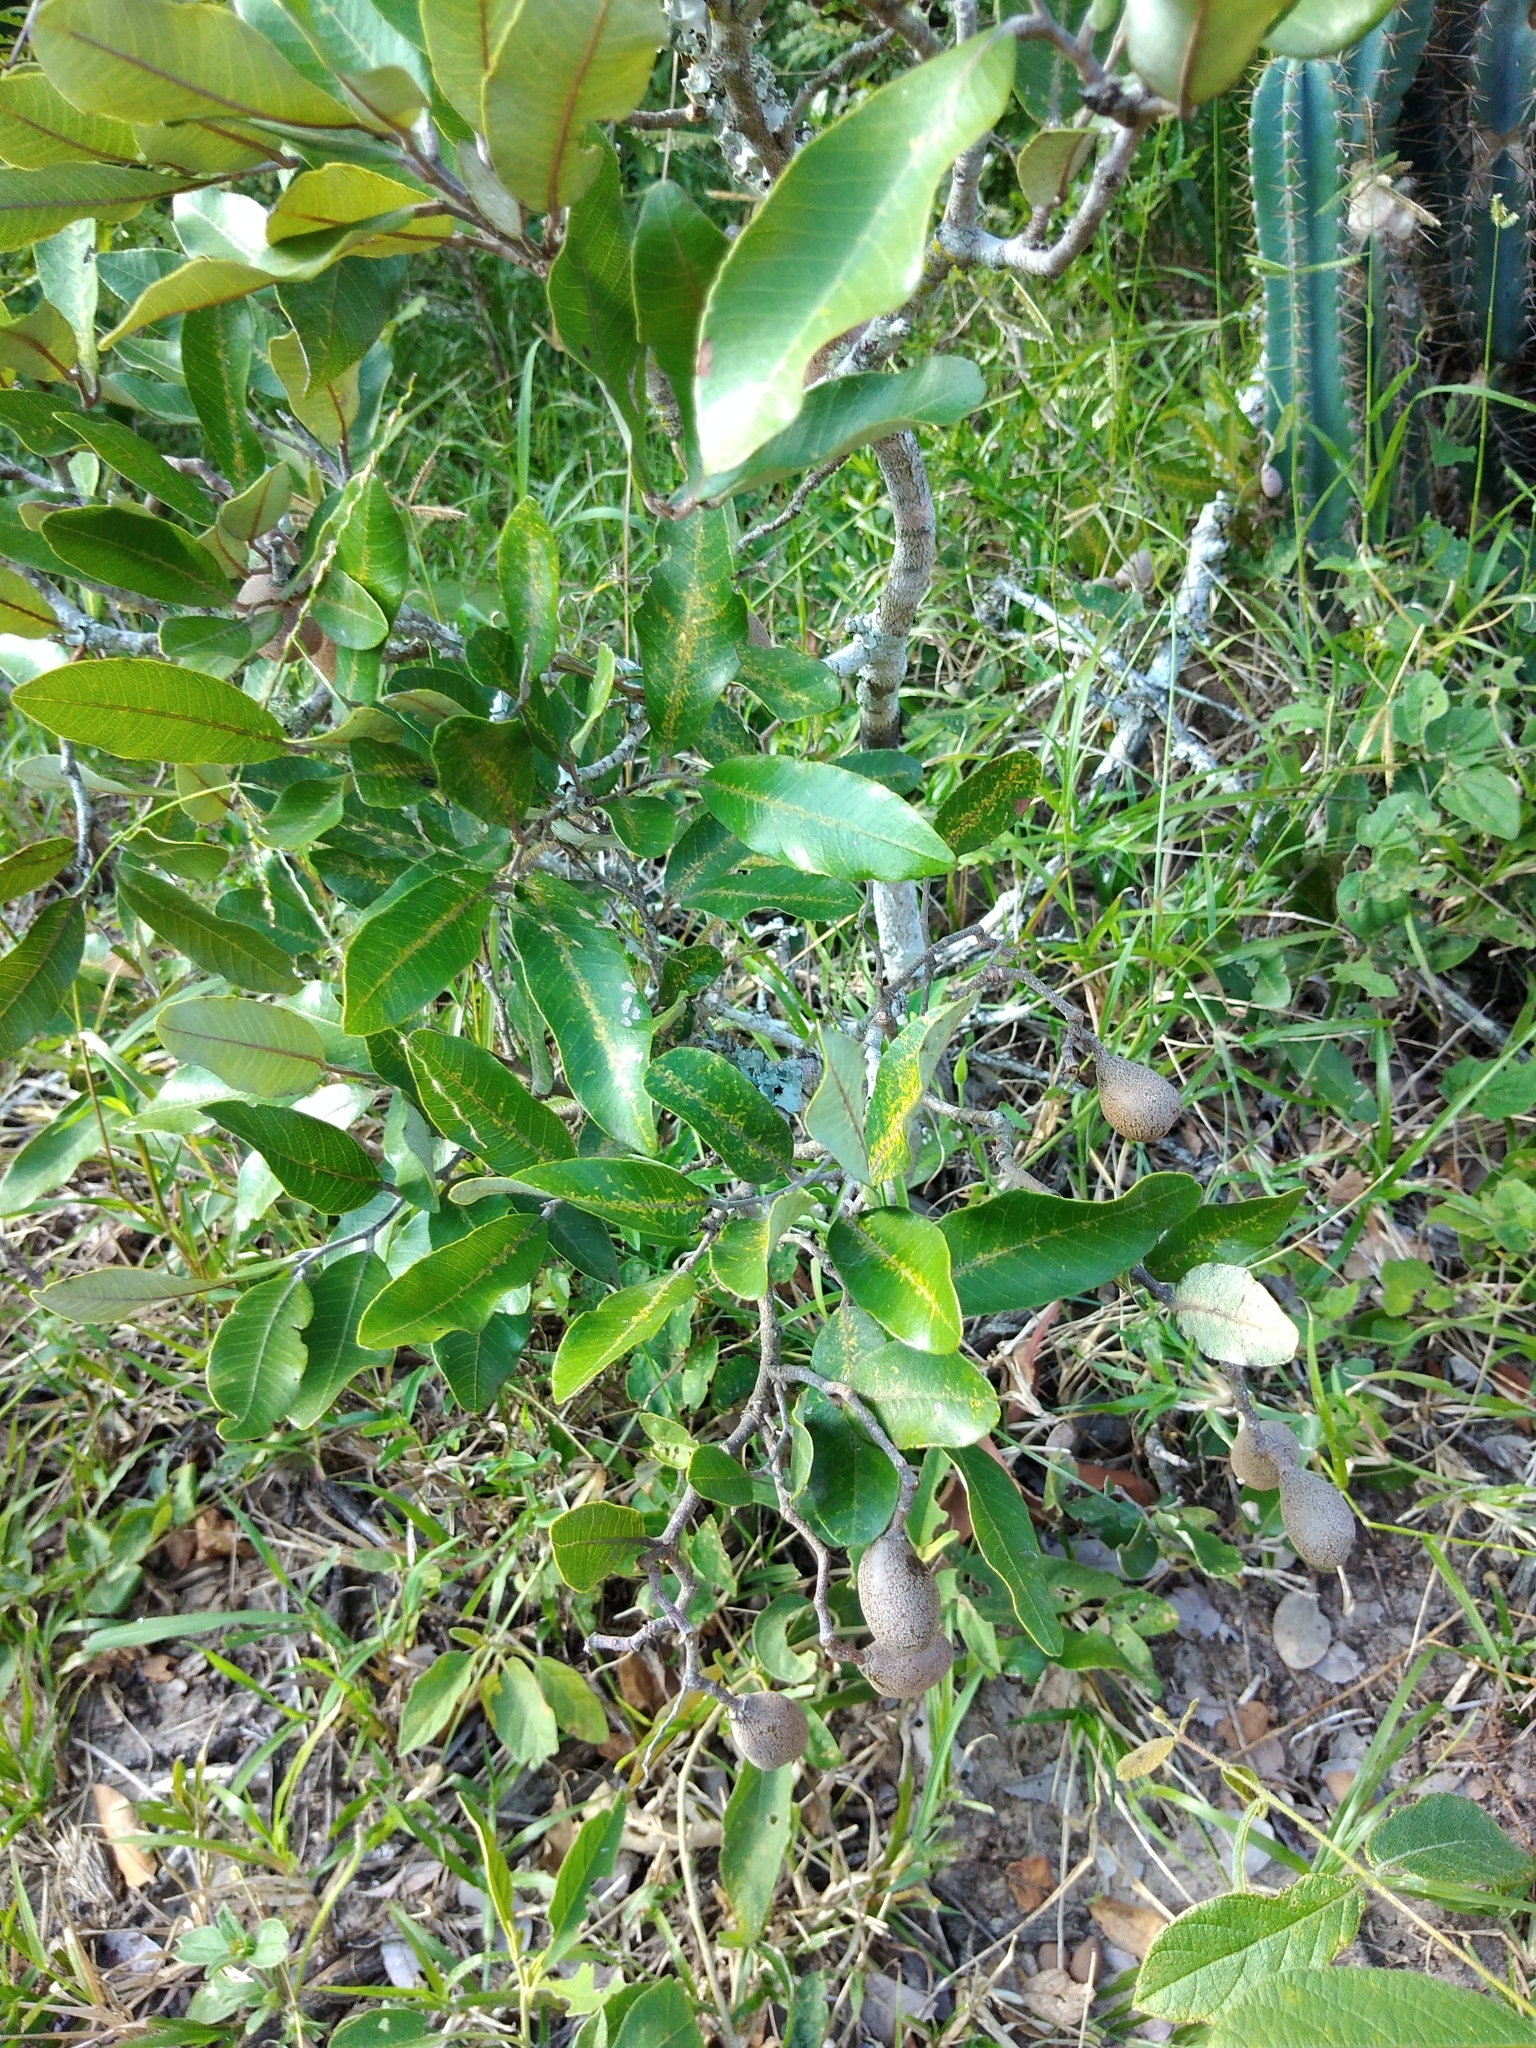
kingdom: Plantae
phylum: Tracheophyta
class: Magnoliopsida
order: Malpighiales
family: Chrysobalanaceae
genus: Parinari
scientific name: Parinari capensis
